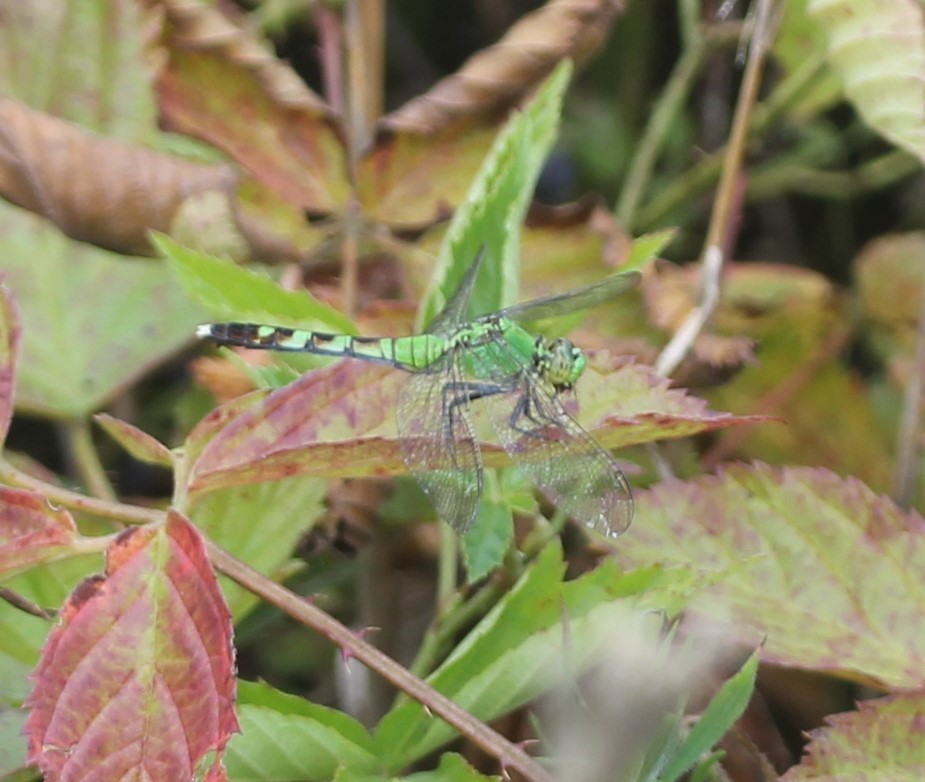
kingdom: Animalia
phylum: Arthropoda
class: Insecta
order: Odonata
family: Libellulidae
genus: Erythemis
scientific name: Erythemis simplicicollis
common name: Eastern pondhawk
